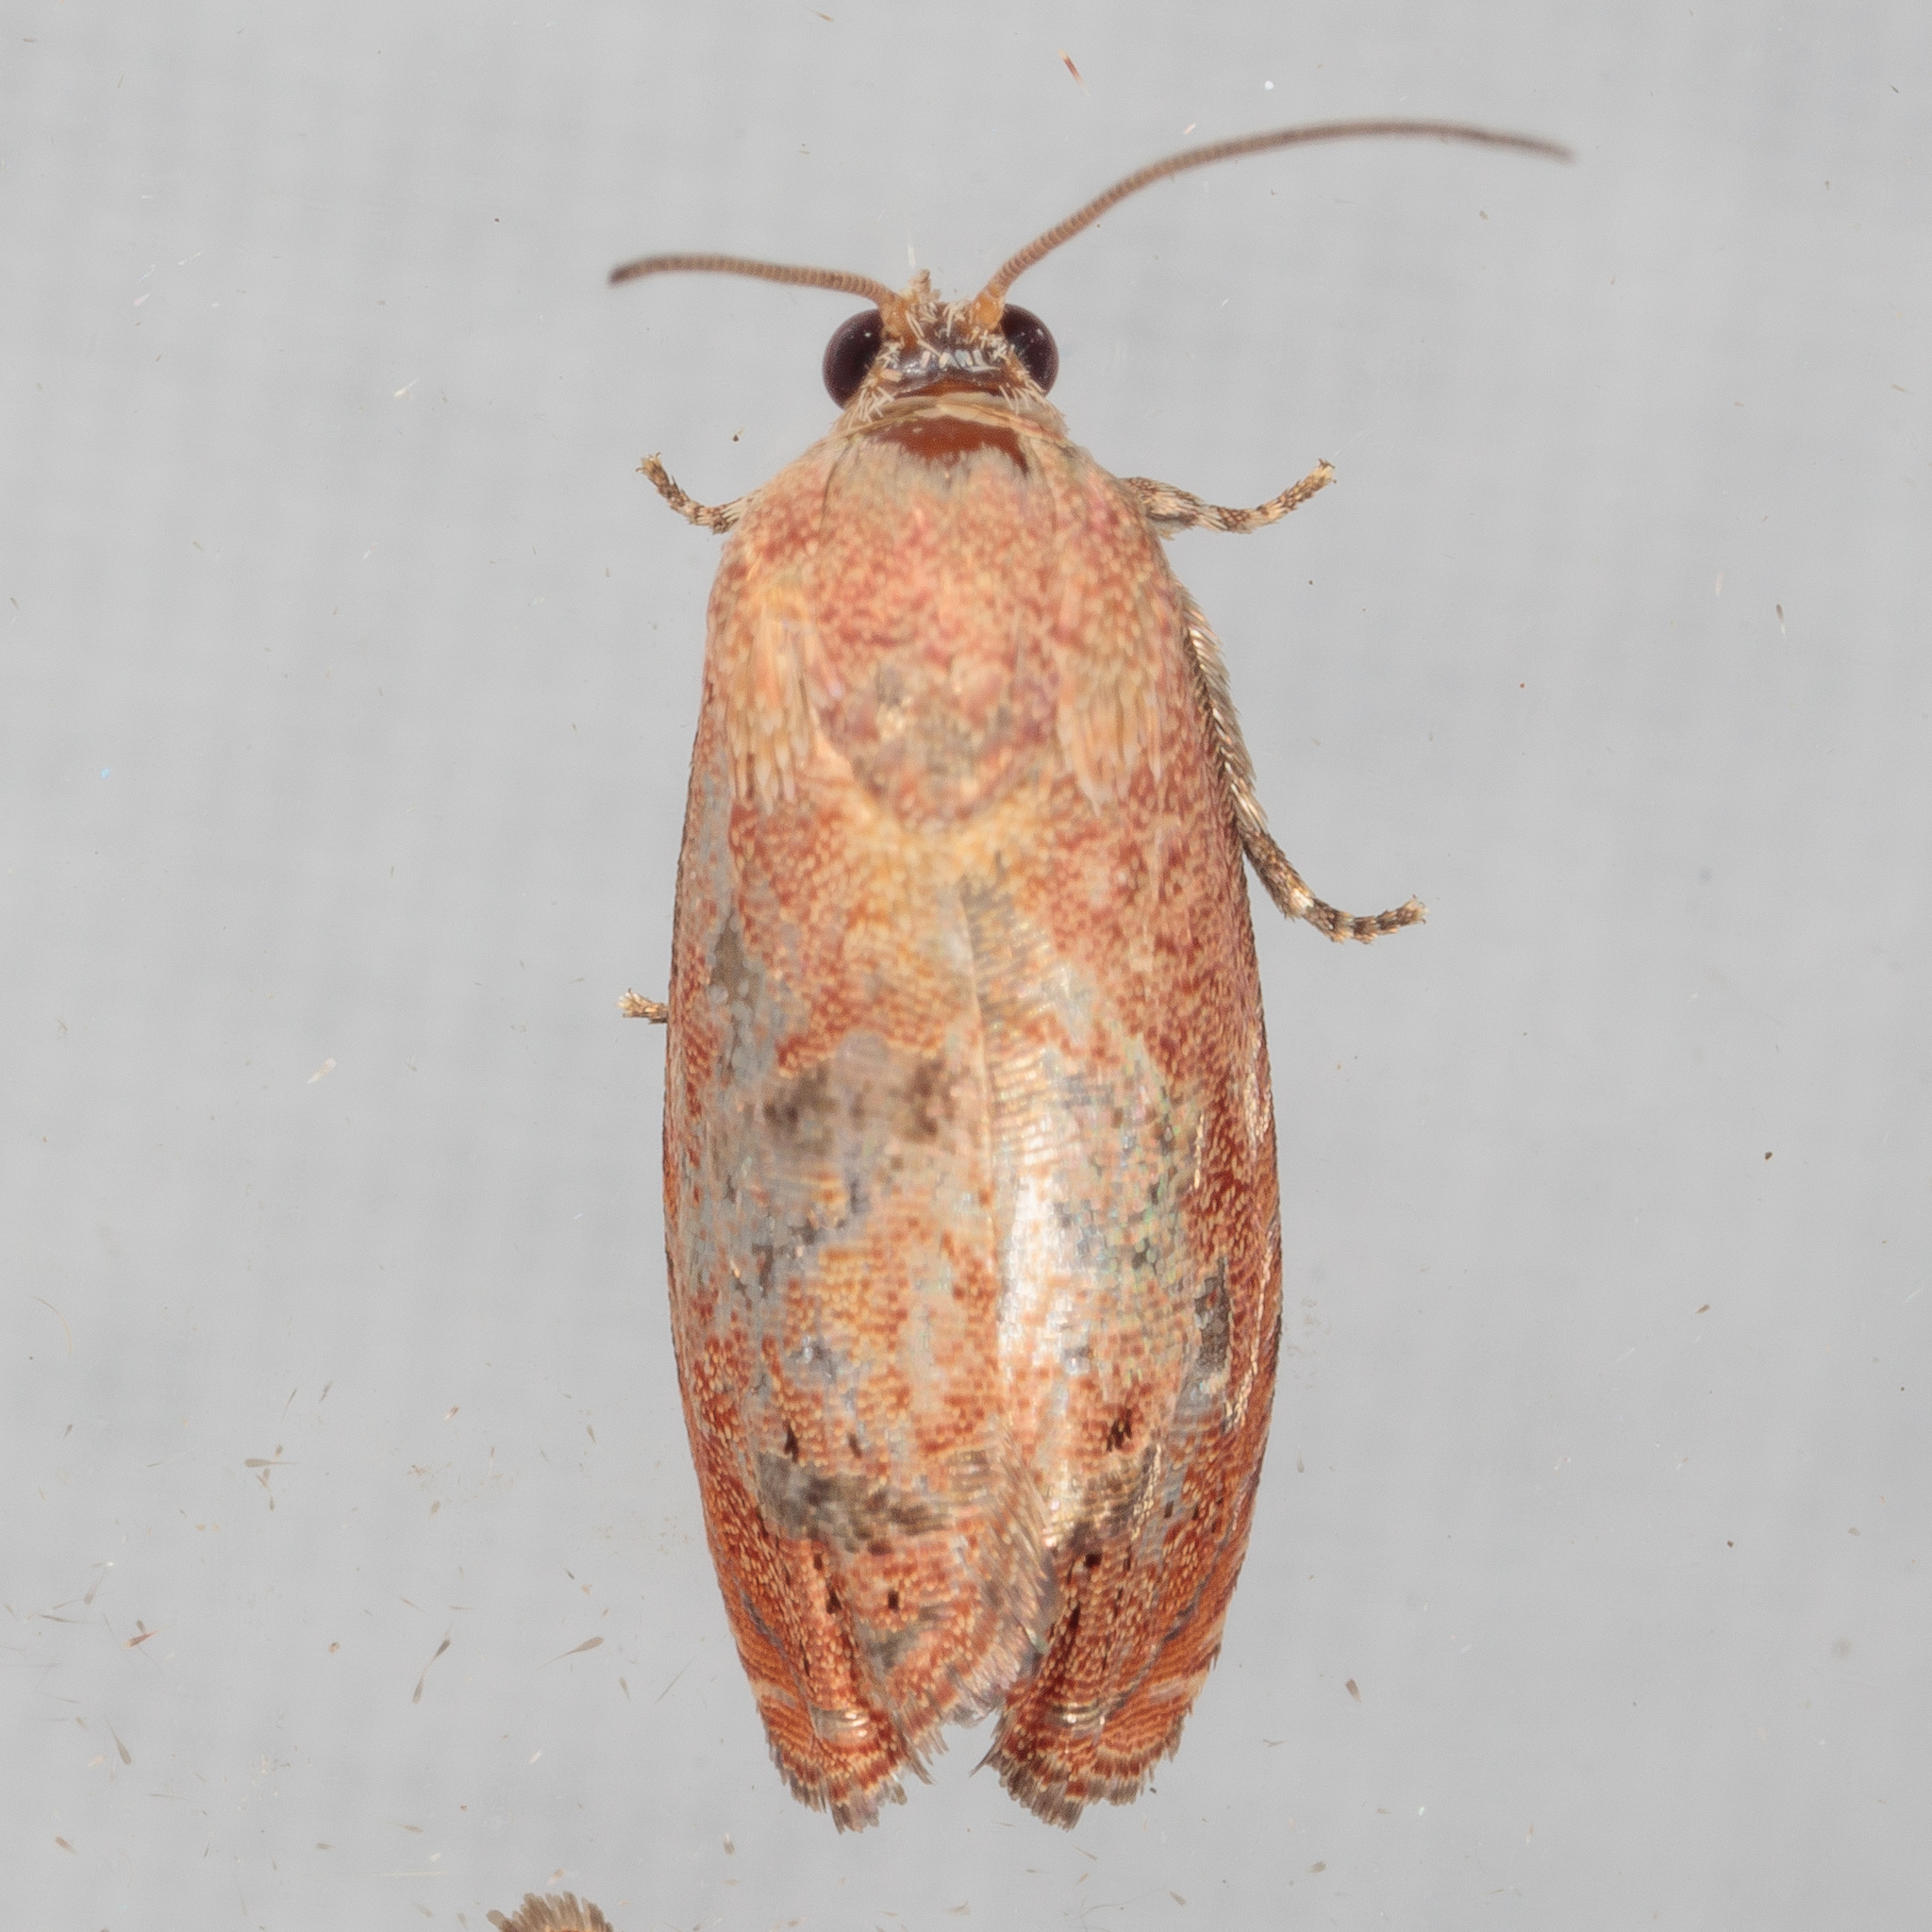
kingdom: Animalia
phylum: Arthropoda
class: Insecta
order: Lepidoptera
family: Tortricidae
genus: Cydia
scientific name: Cydia latiferreana
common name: Filbertworm moth
